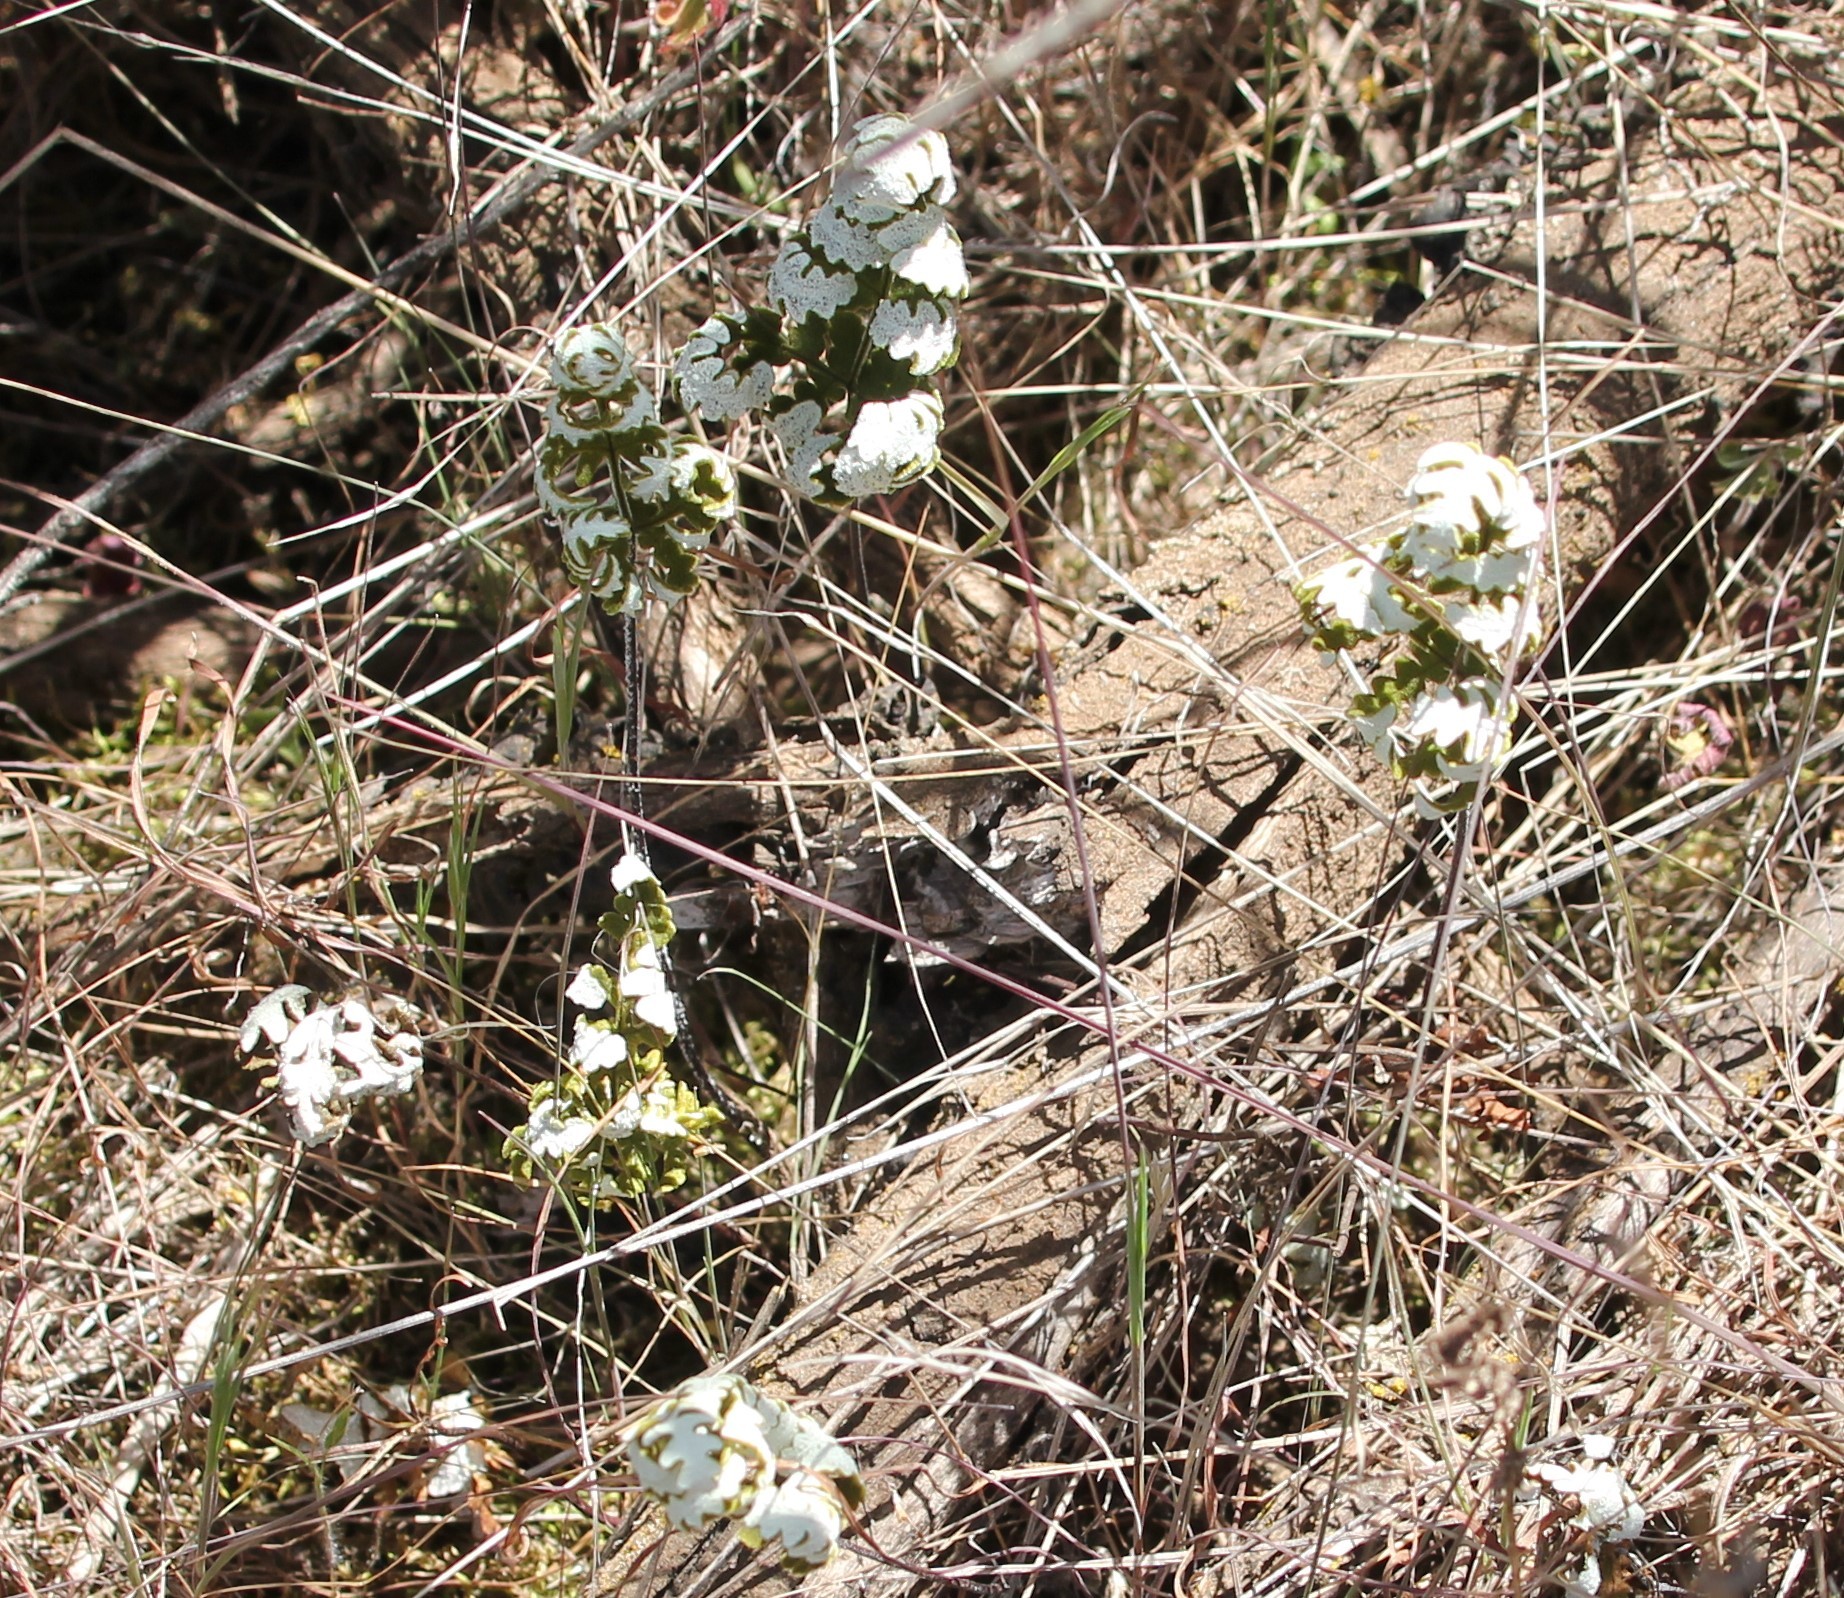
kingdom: Plantae
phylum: Tracheophyta
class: Polypodiopsida
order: Polypodiales
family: Pteridaceae
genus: Pentagramma
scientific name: Pentagramma glanduloviscida
